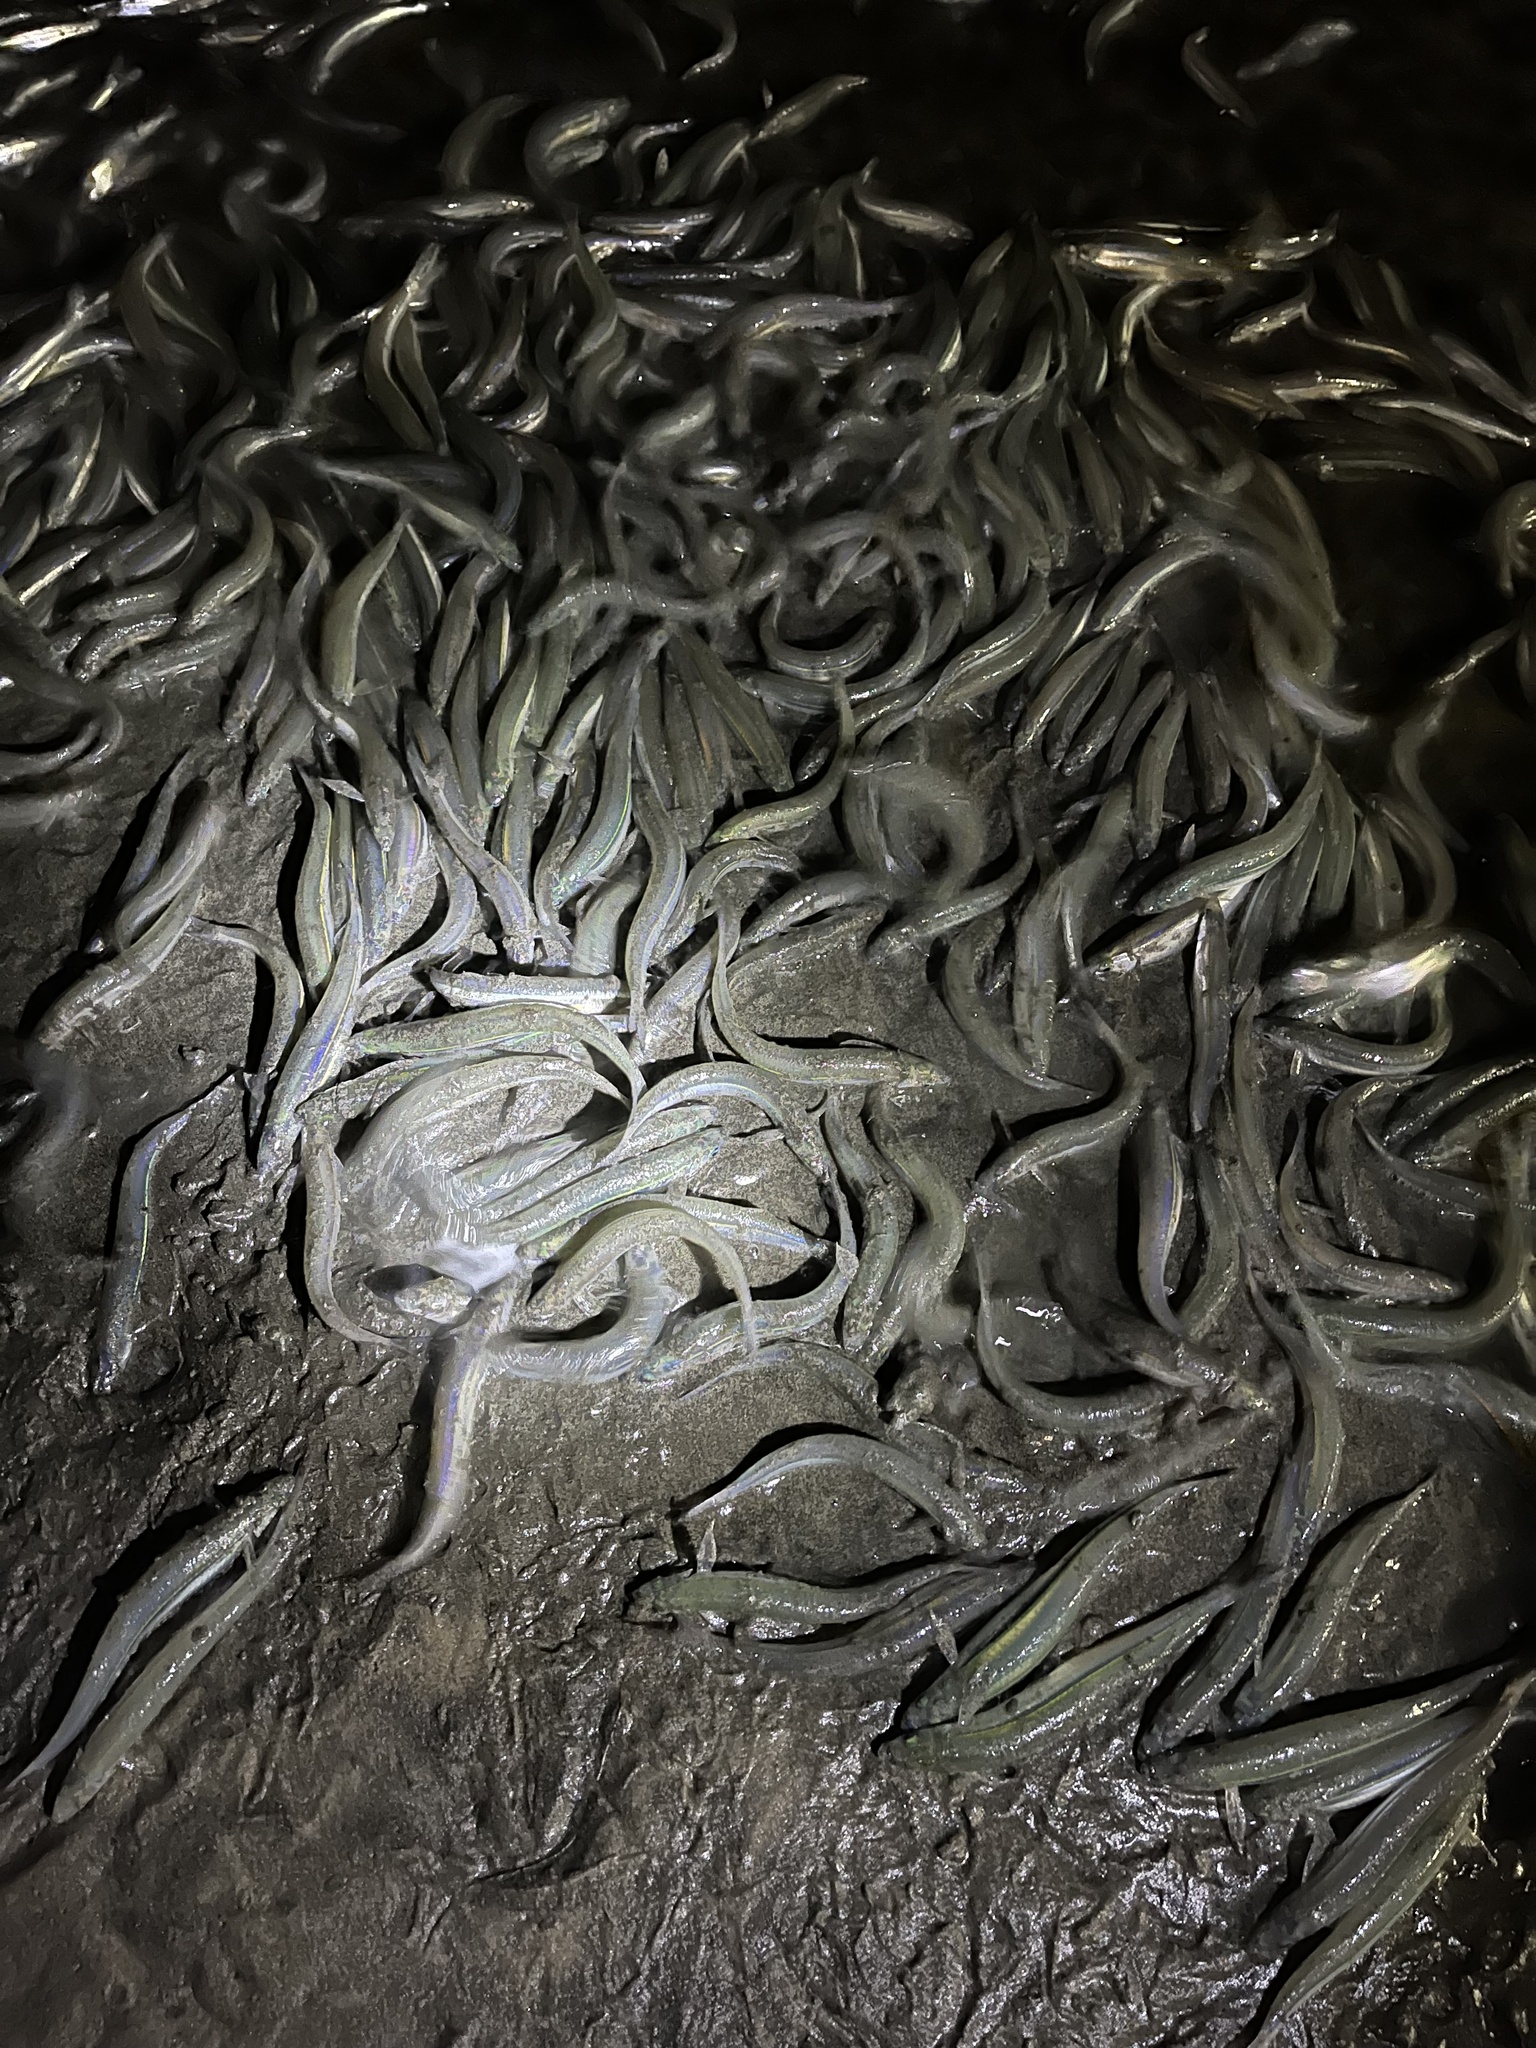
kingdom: Animalia
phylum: Chordata
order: Atheriniformes
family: Atherinopsidae
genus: Leuresthes
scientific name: Leuresthes tenuis
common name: California grunion
